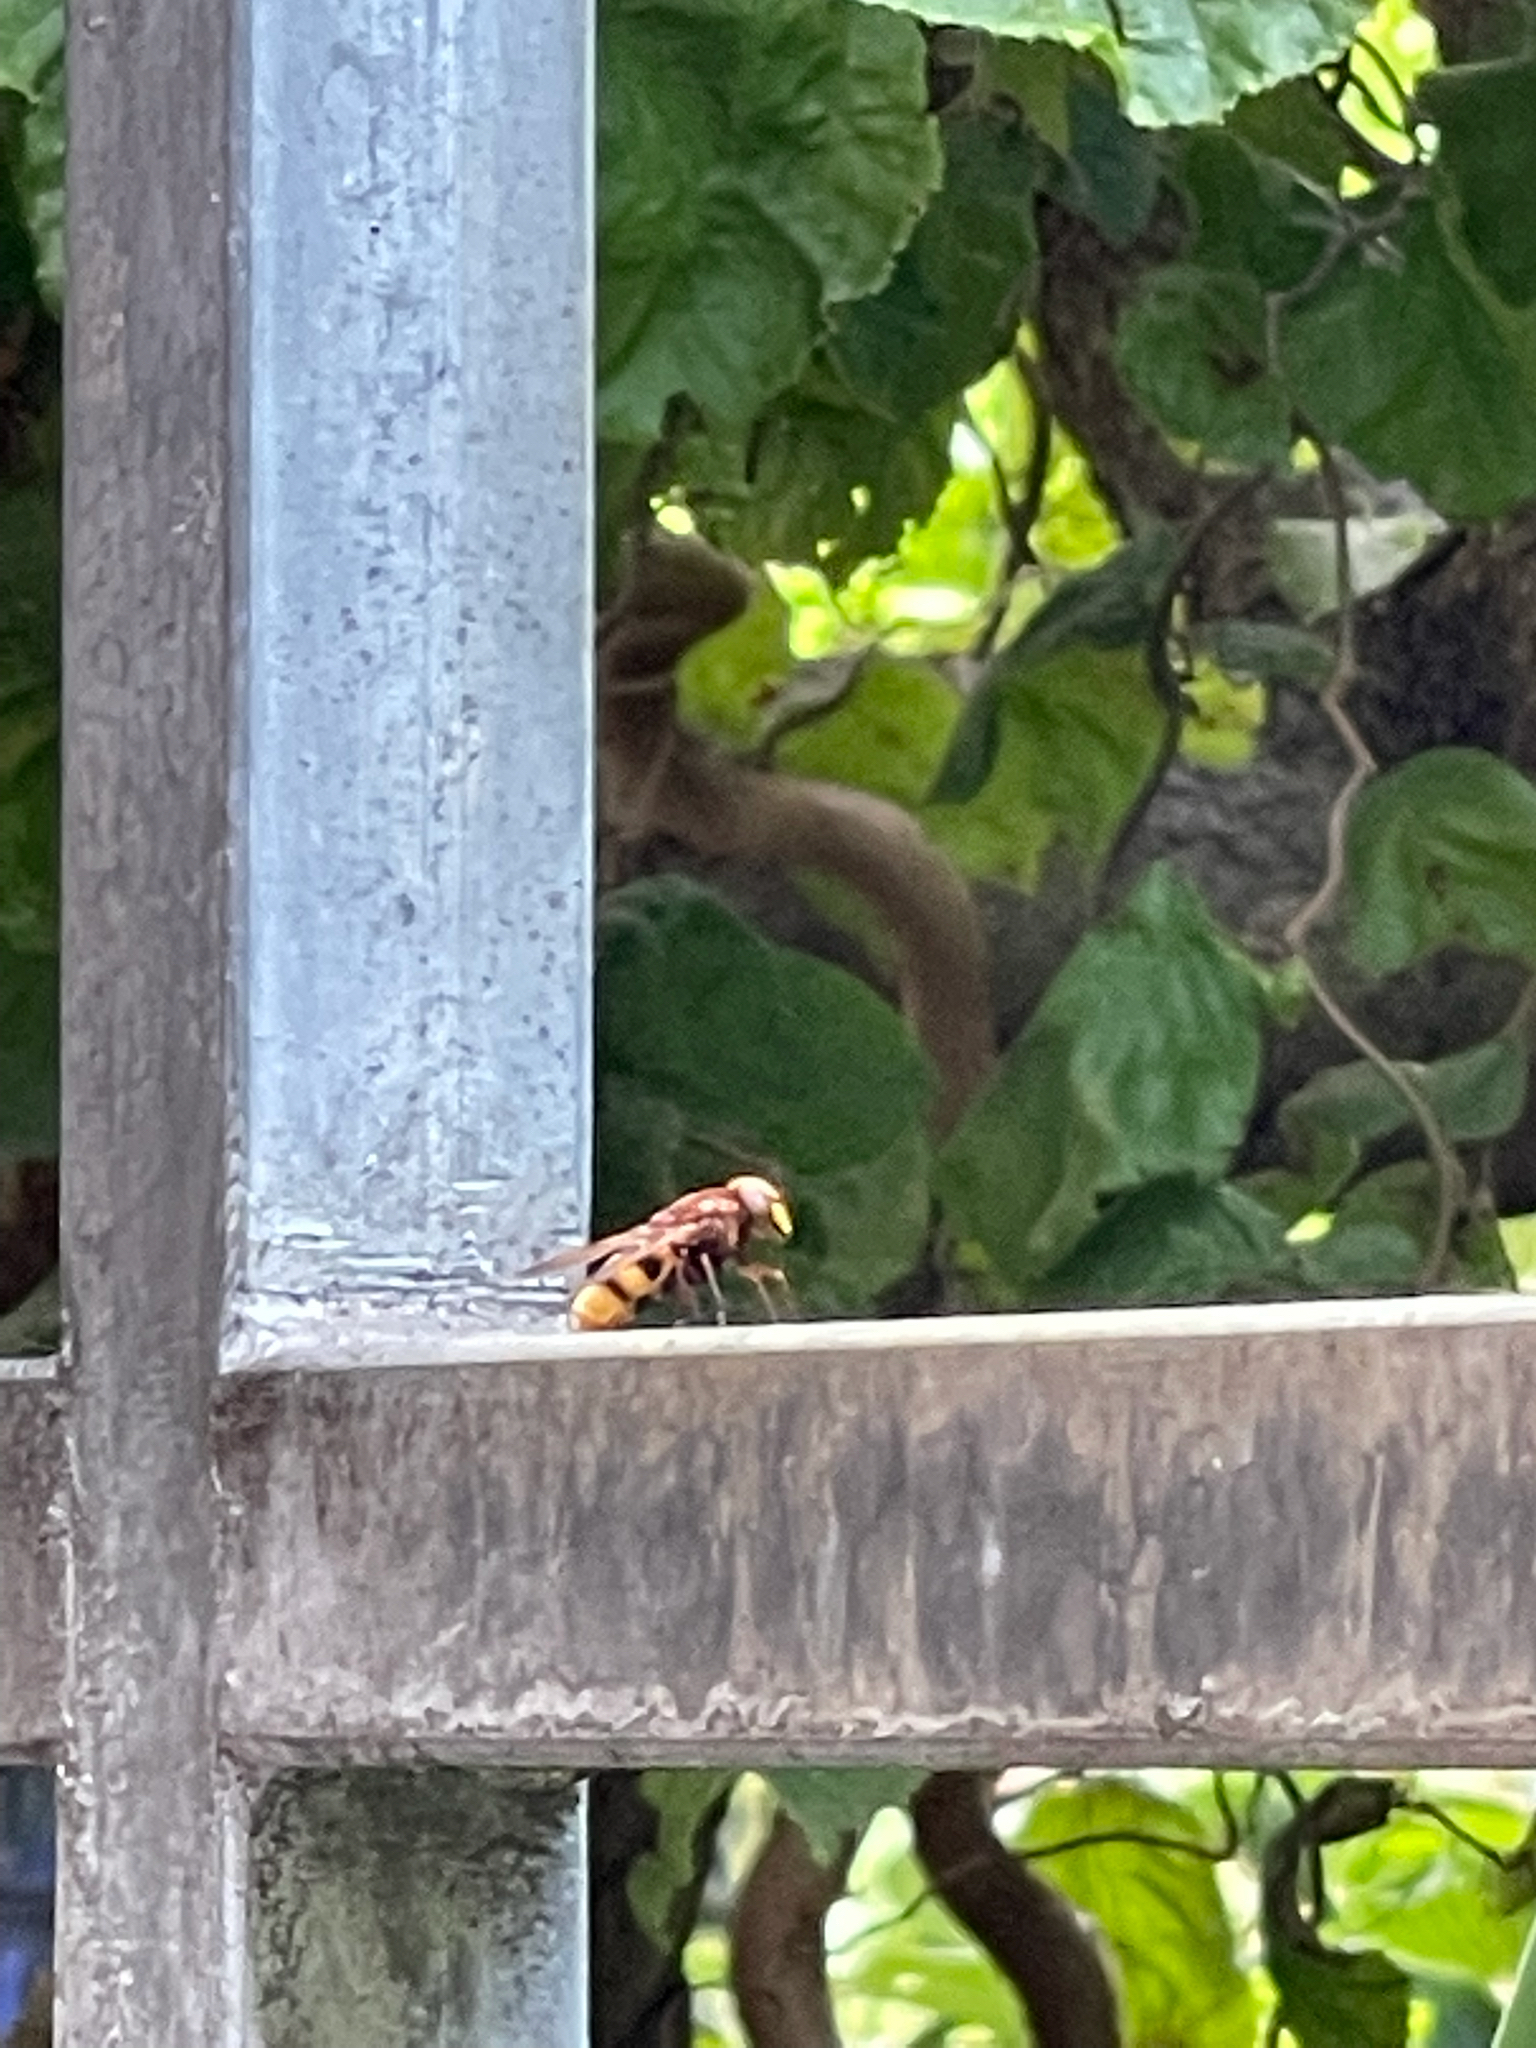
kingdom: Animalia
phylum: Arthropoda
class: Insecta
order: Diptera
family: Syrphidae
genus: Volucella
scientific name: Volucella zonaria
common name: Hornet hoverfly
